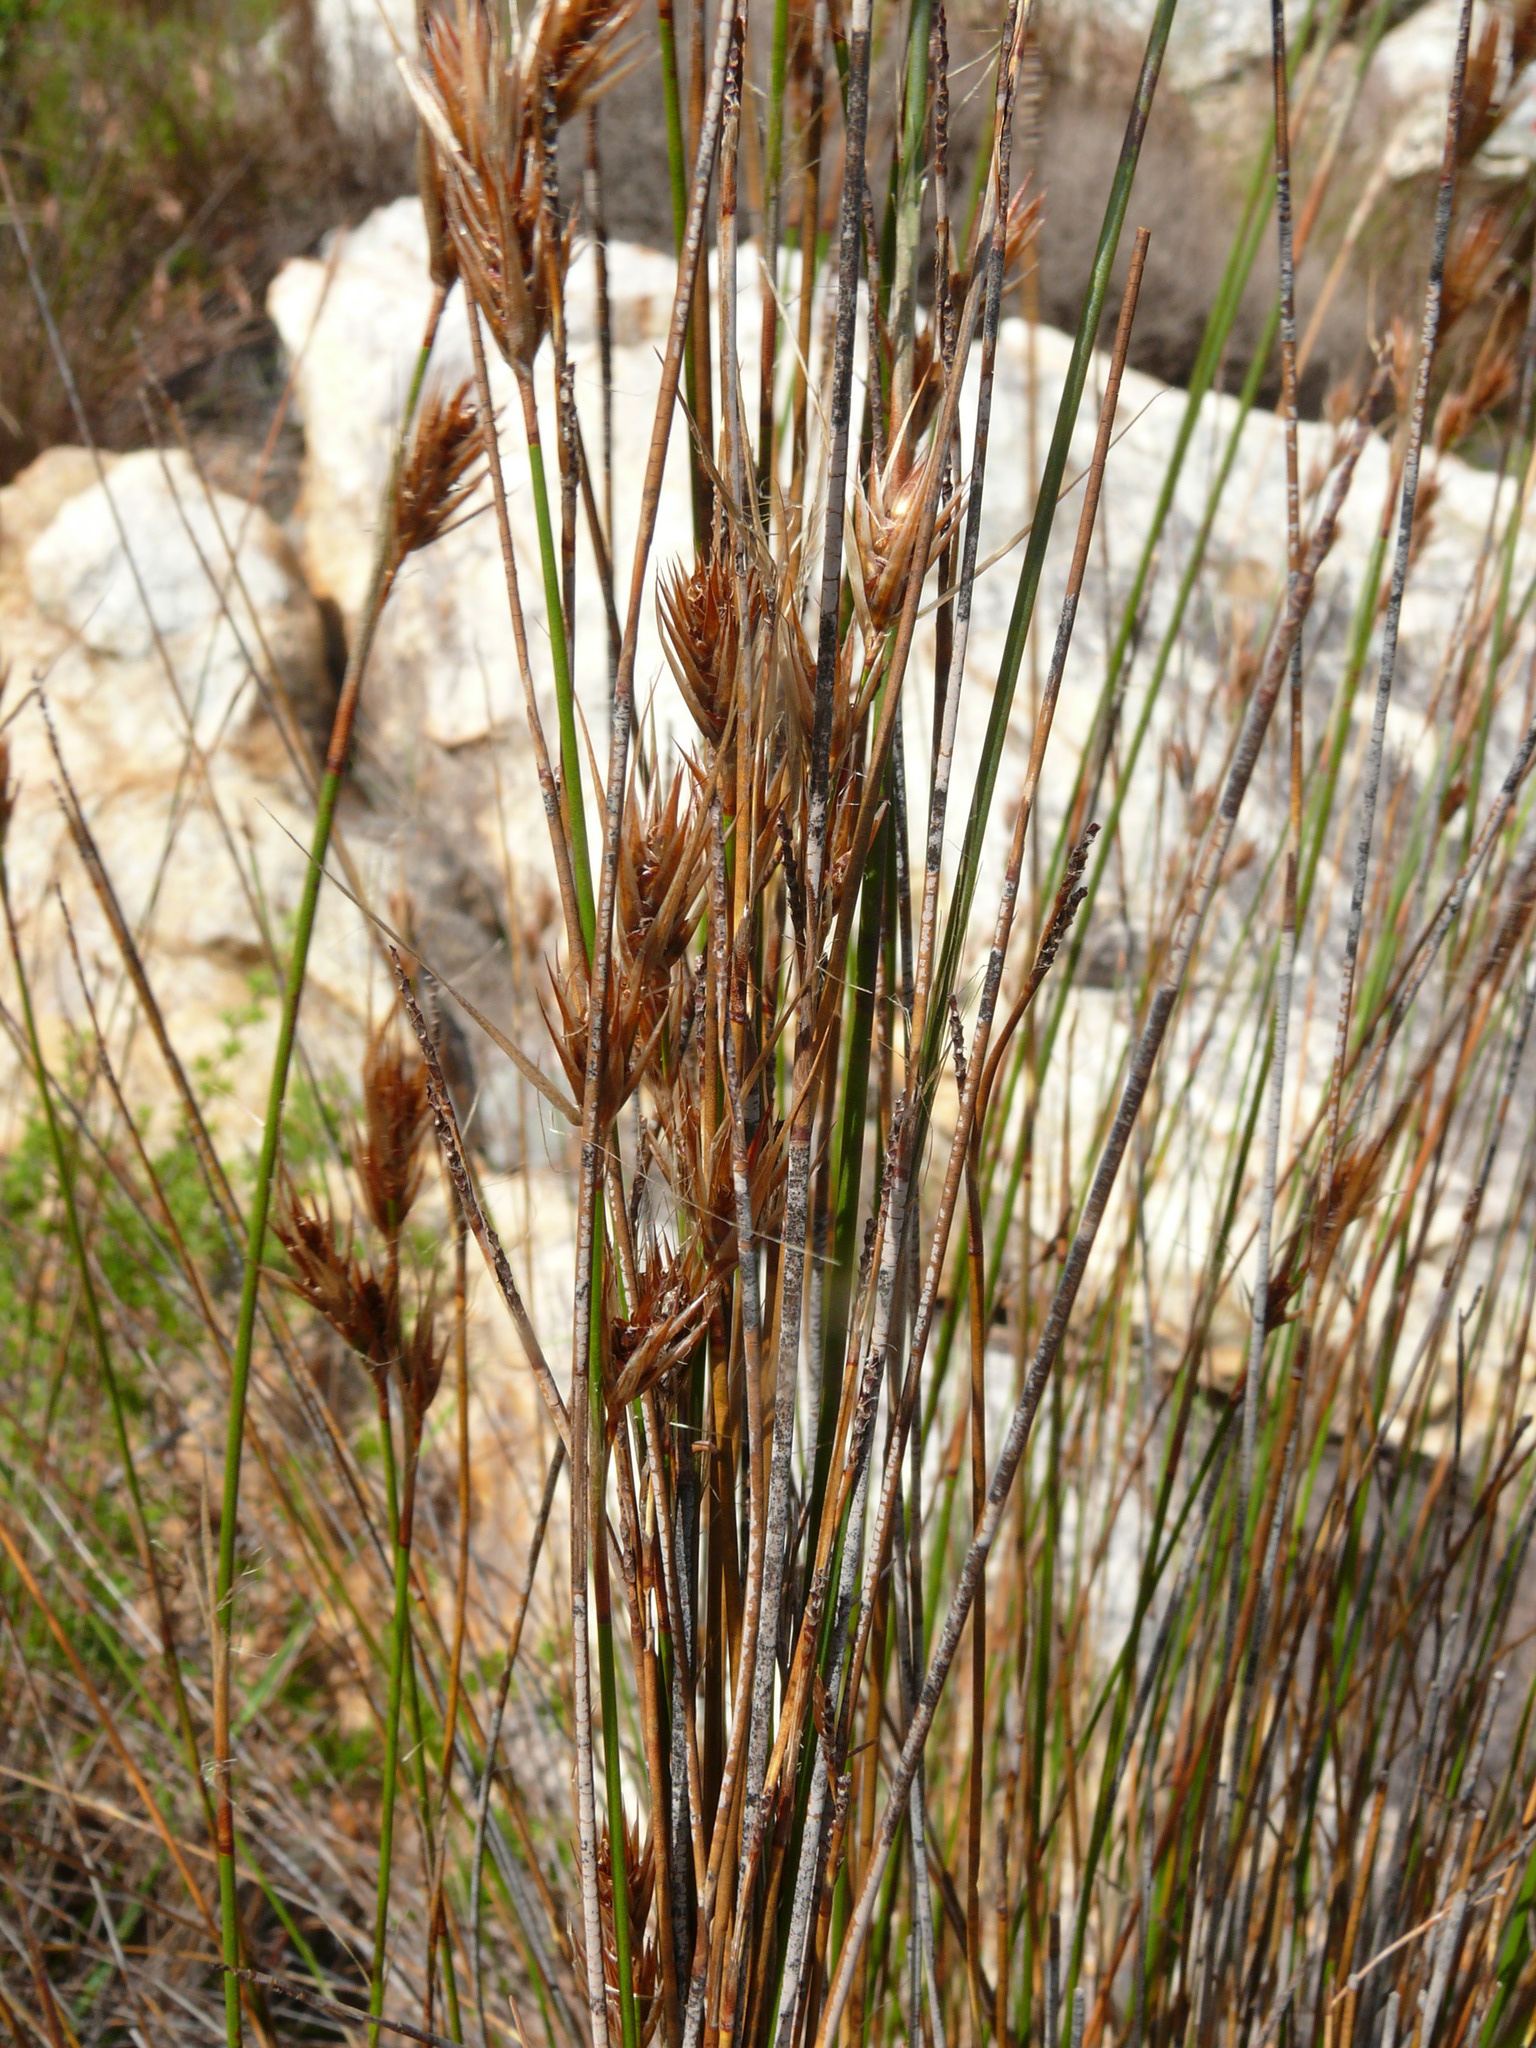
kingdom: Plantae
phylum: Tracheophyta
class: Liliopsida
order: Poales
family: Restionaceae
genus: Thamnochortus
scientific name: Thamnochortus lucens
